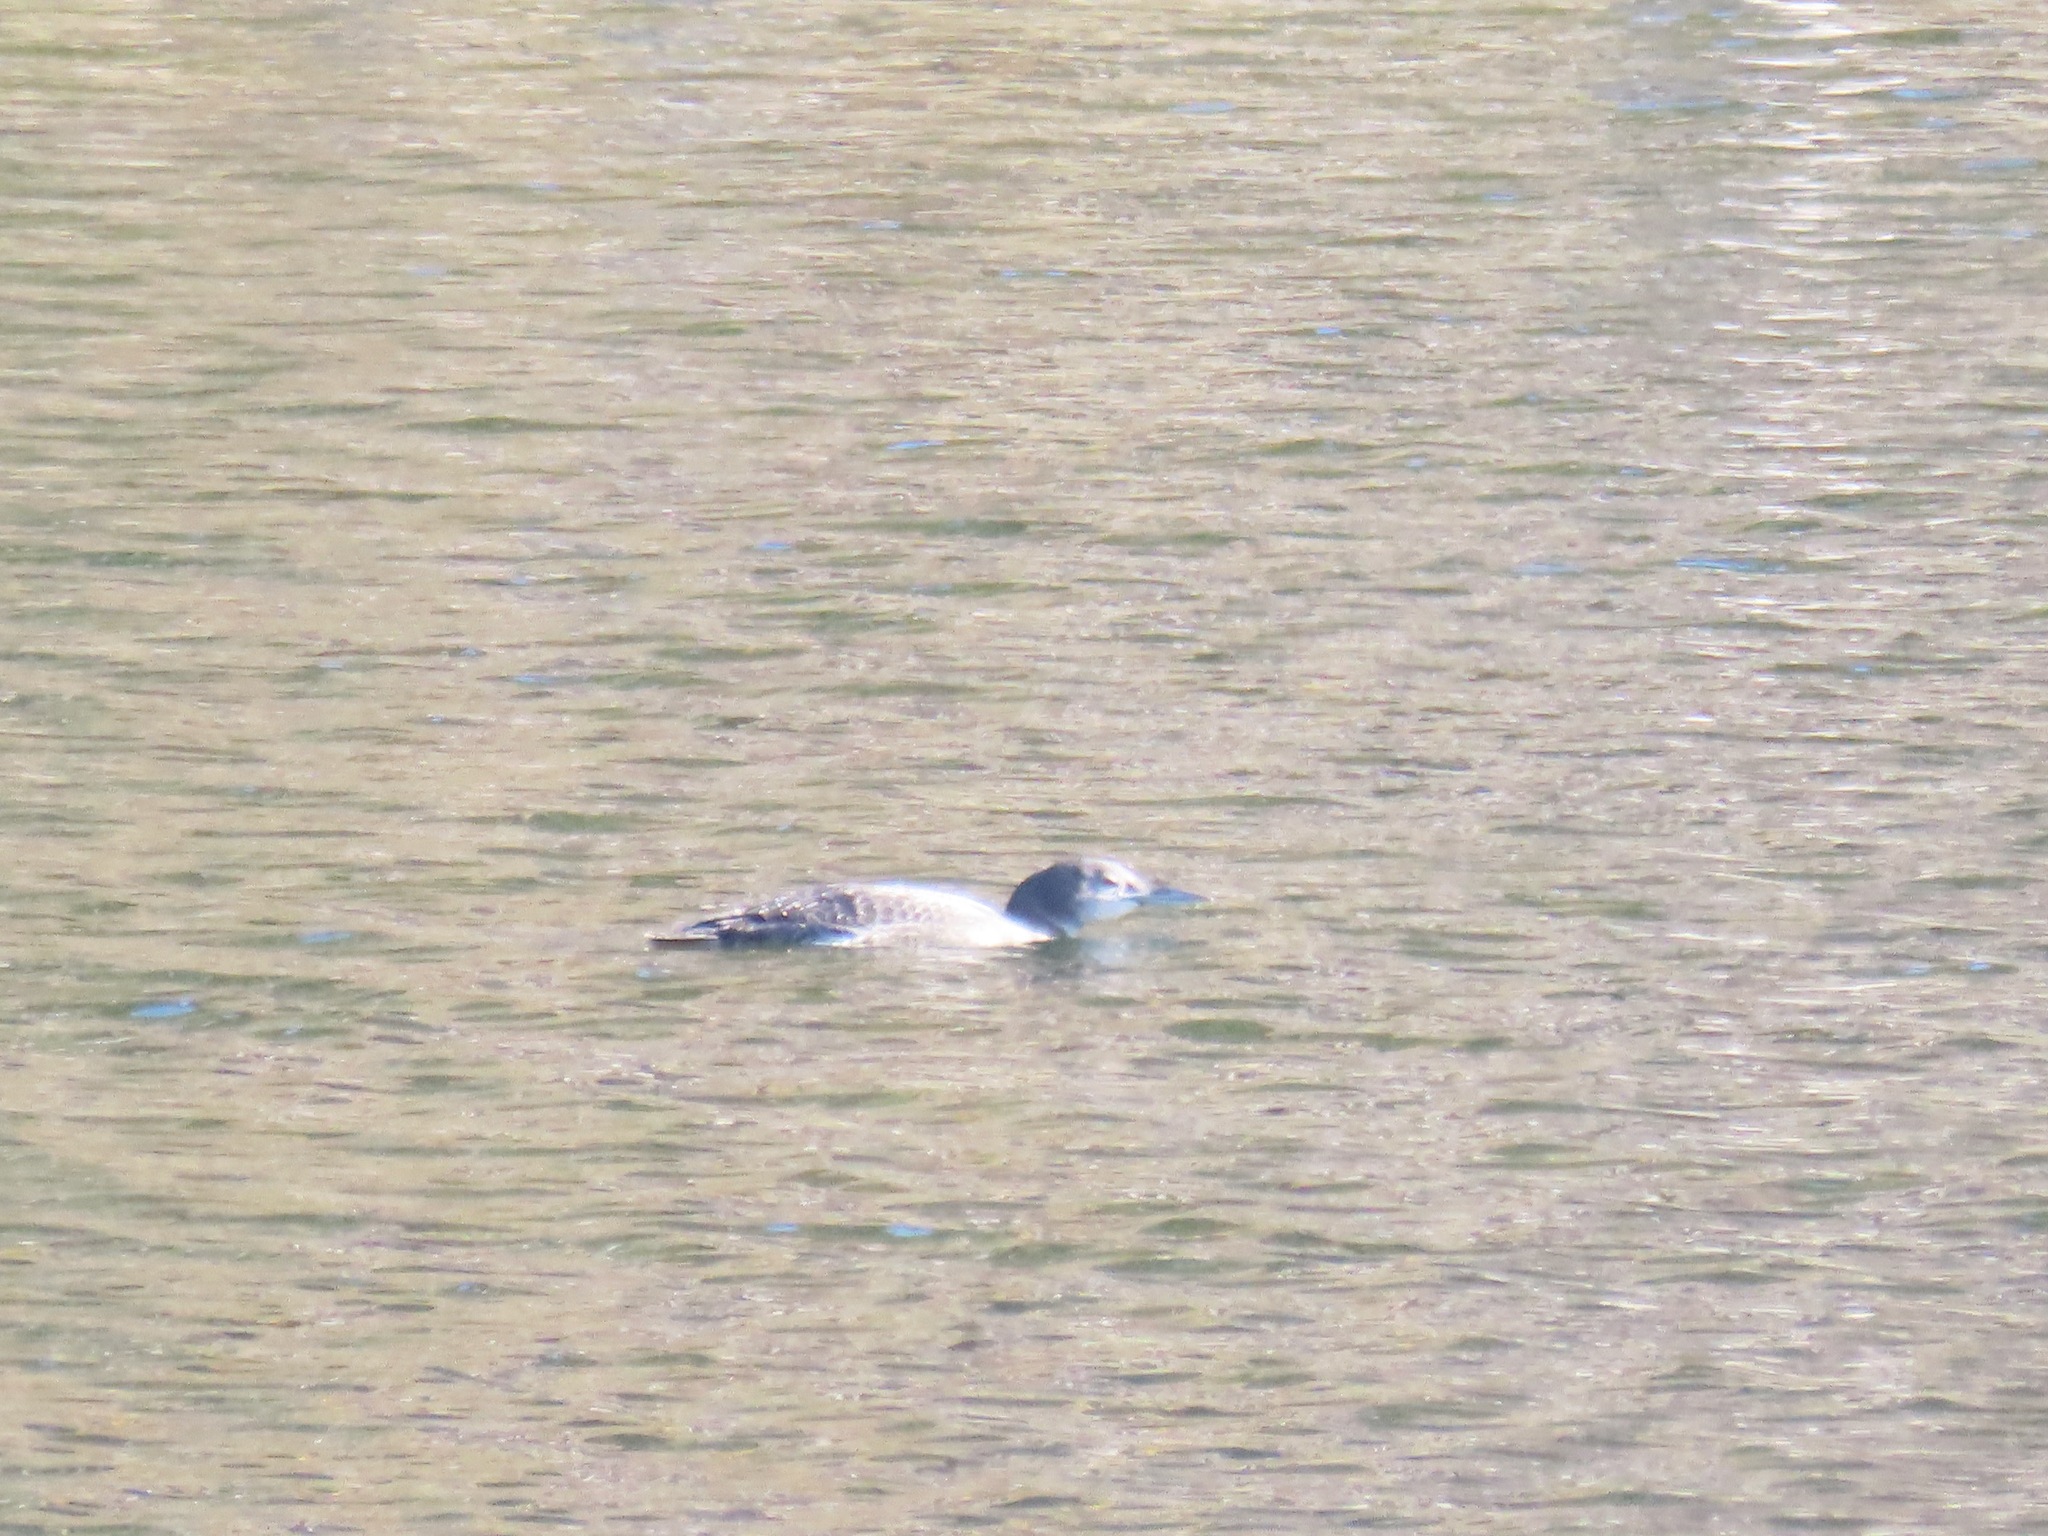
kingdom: Animalia
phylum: Chordata
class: Aves
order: Gaviiformes
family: Gaviidae
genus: Gavia
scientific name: Gavia immer
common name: Common loon
